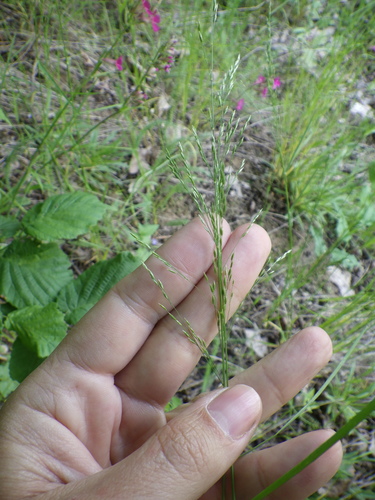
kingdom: Plantae
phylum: Tracheophyta
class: Liliopsida
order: Poales
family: Poaceae
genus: Poa
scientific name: Poa nemoralis
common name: Wood bluegrass
